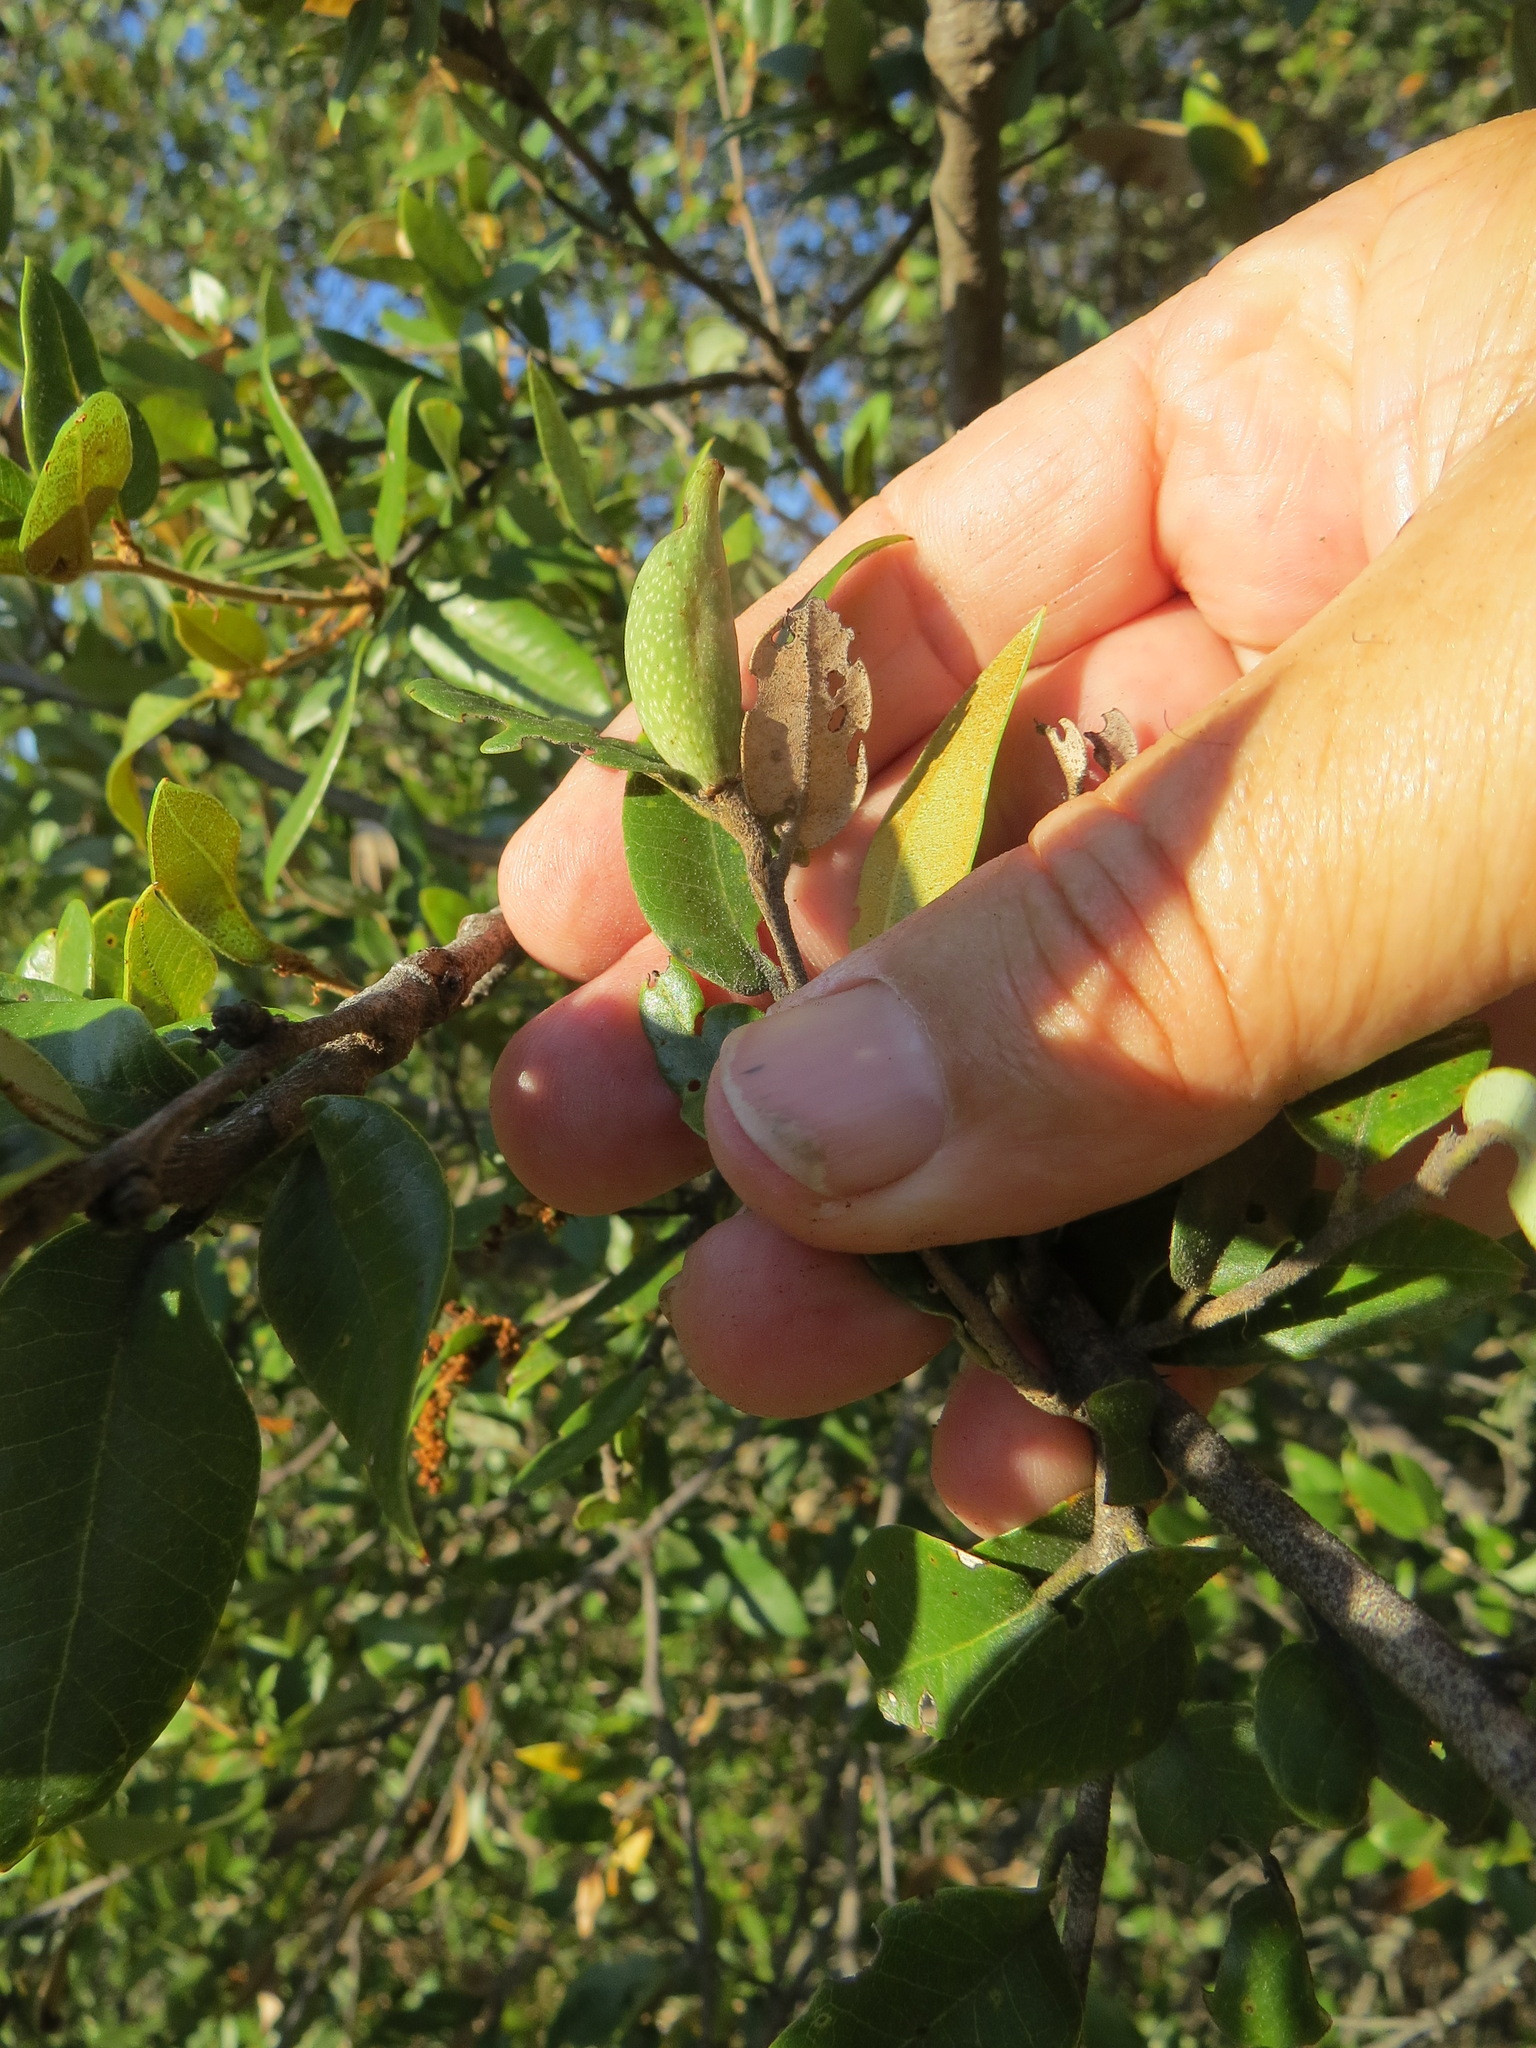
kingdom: Animalia
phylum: Arthropoda
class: Insecta
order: Hymenoptera
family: Cynipidae
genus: Heteroecus
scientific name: Heteroecus pacificus
